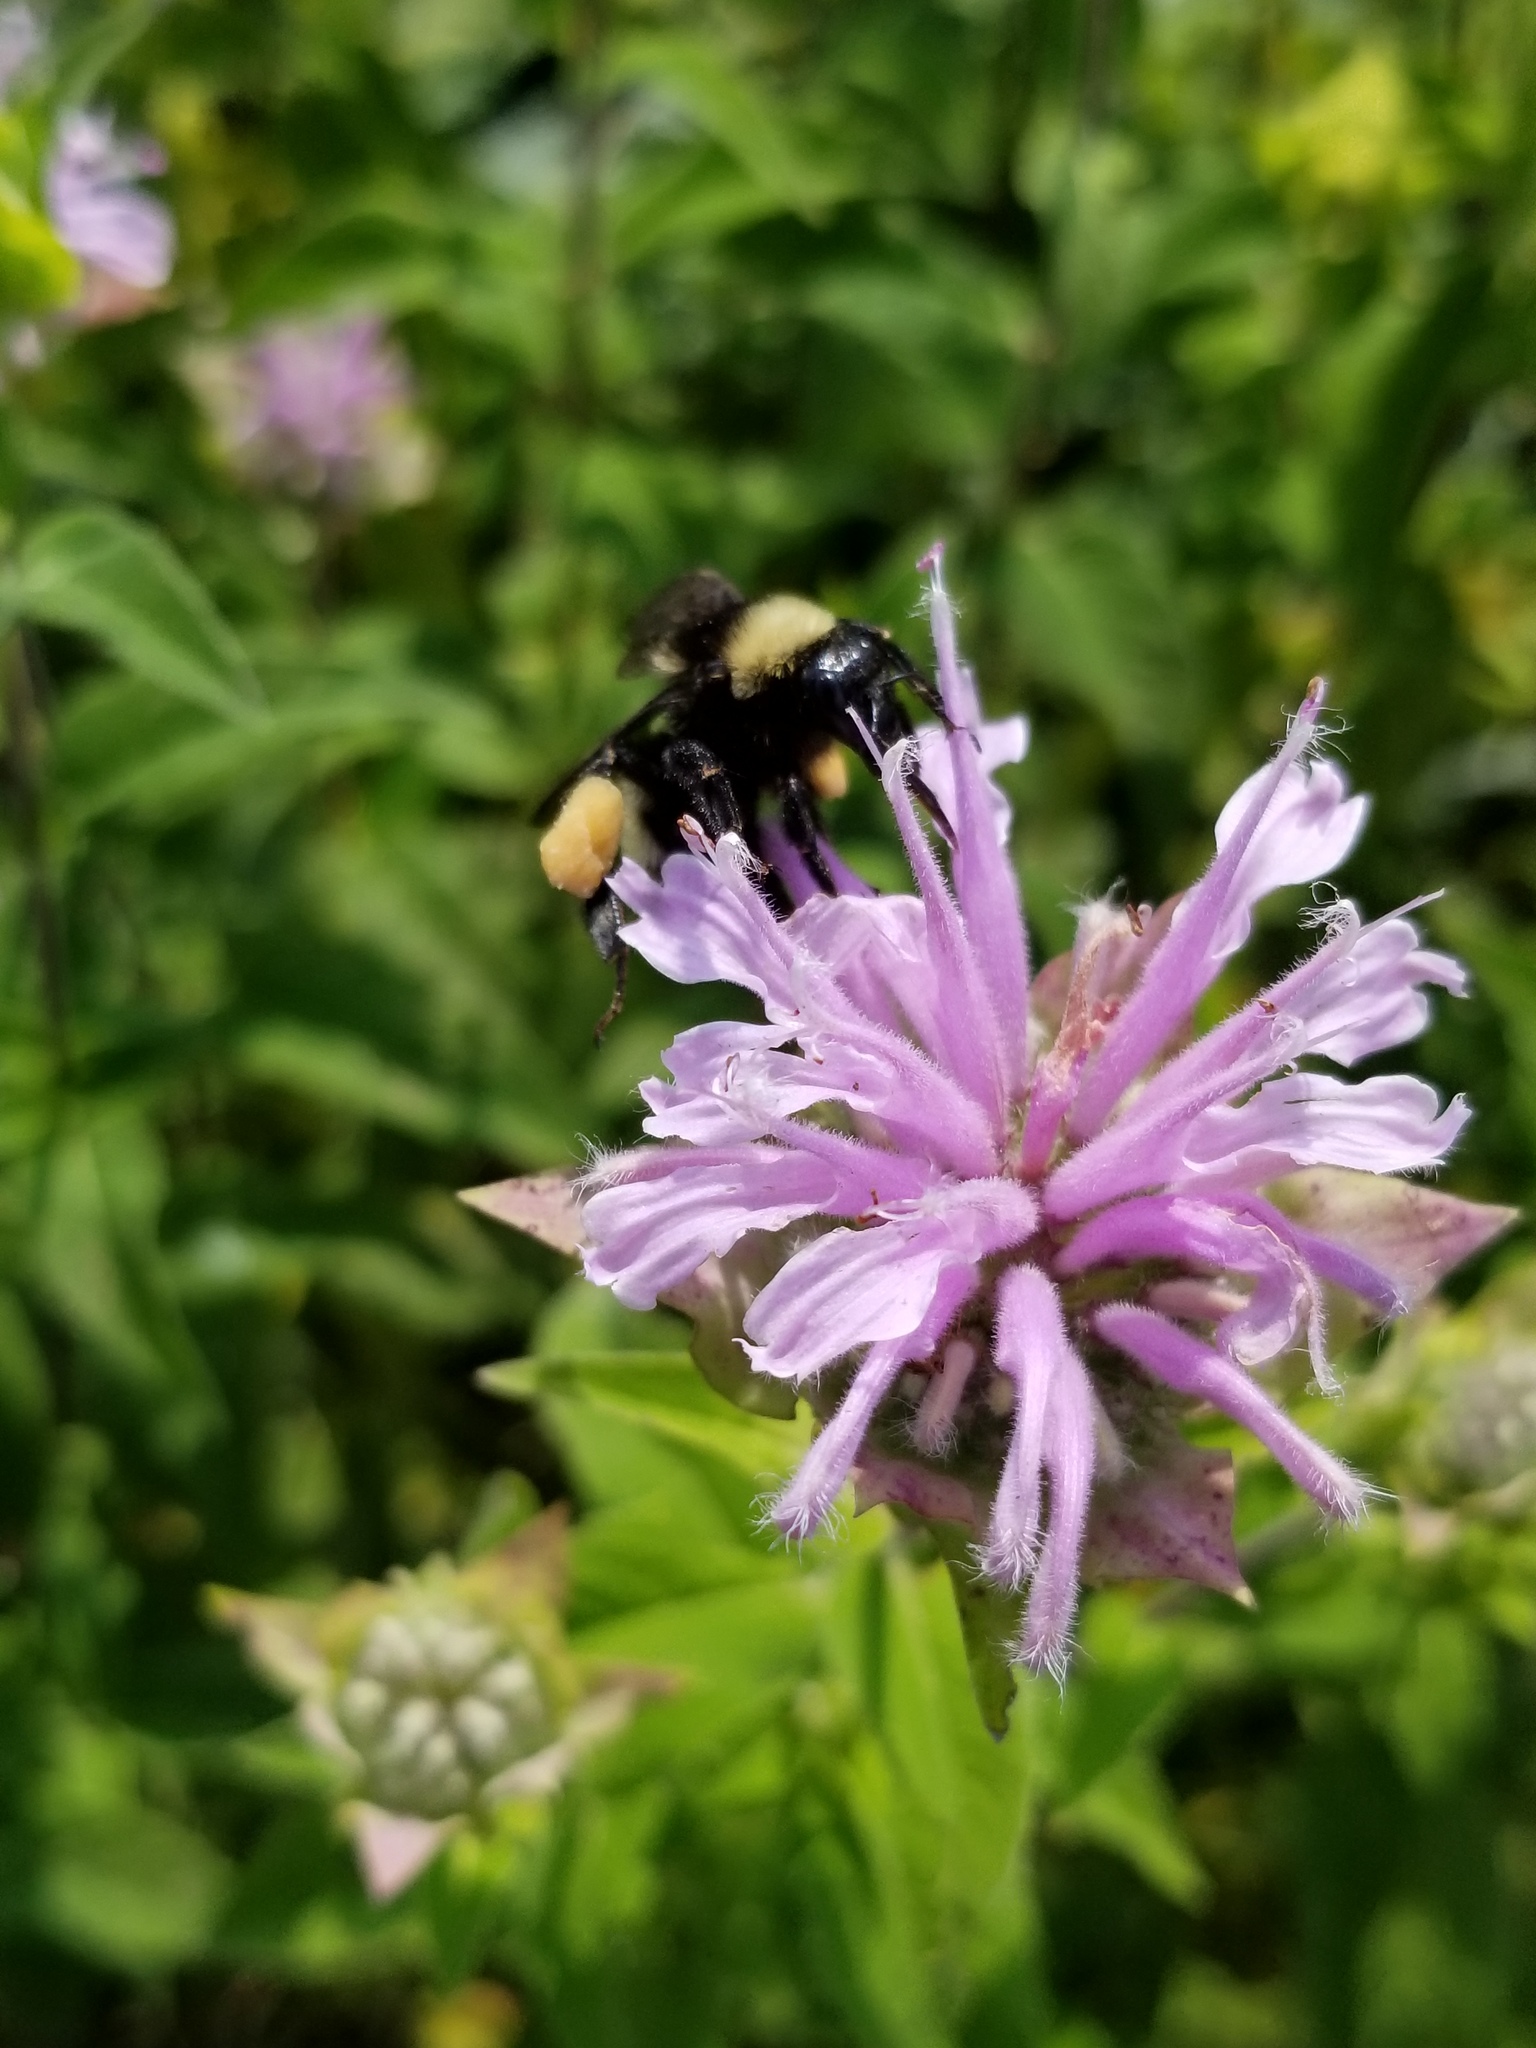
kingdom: Animalia
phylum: Arthropoda
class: Insecta
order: Hymenoptera
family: Apidae
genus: Bombus
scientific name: Bombus pensylvanicus
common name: Bumble bee
